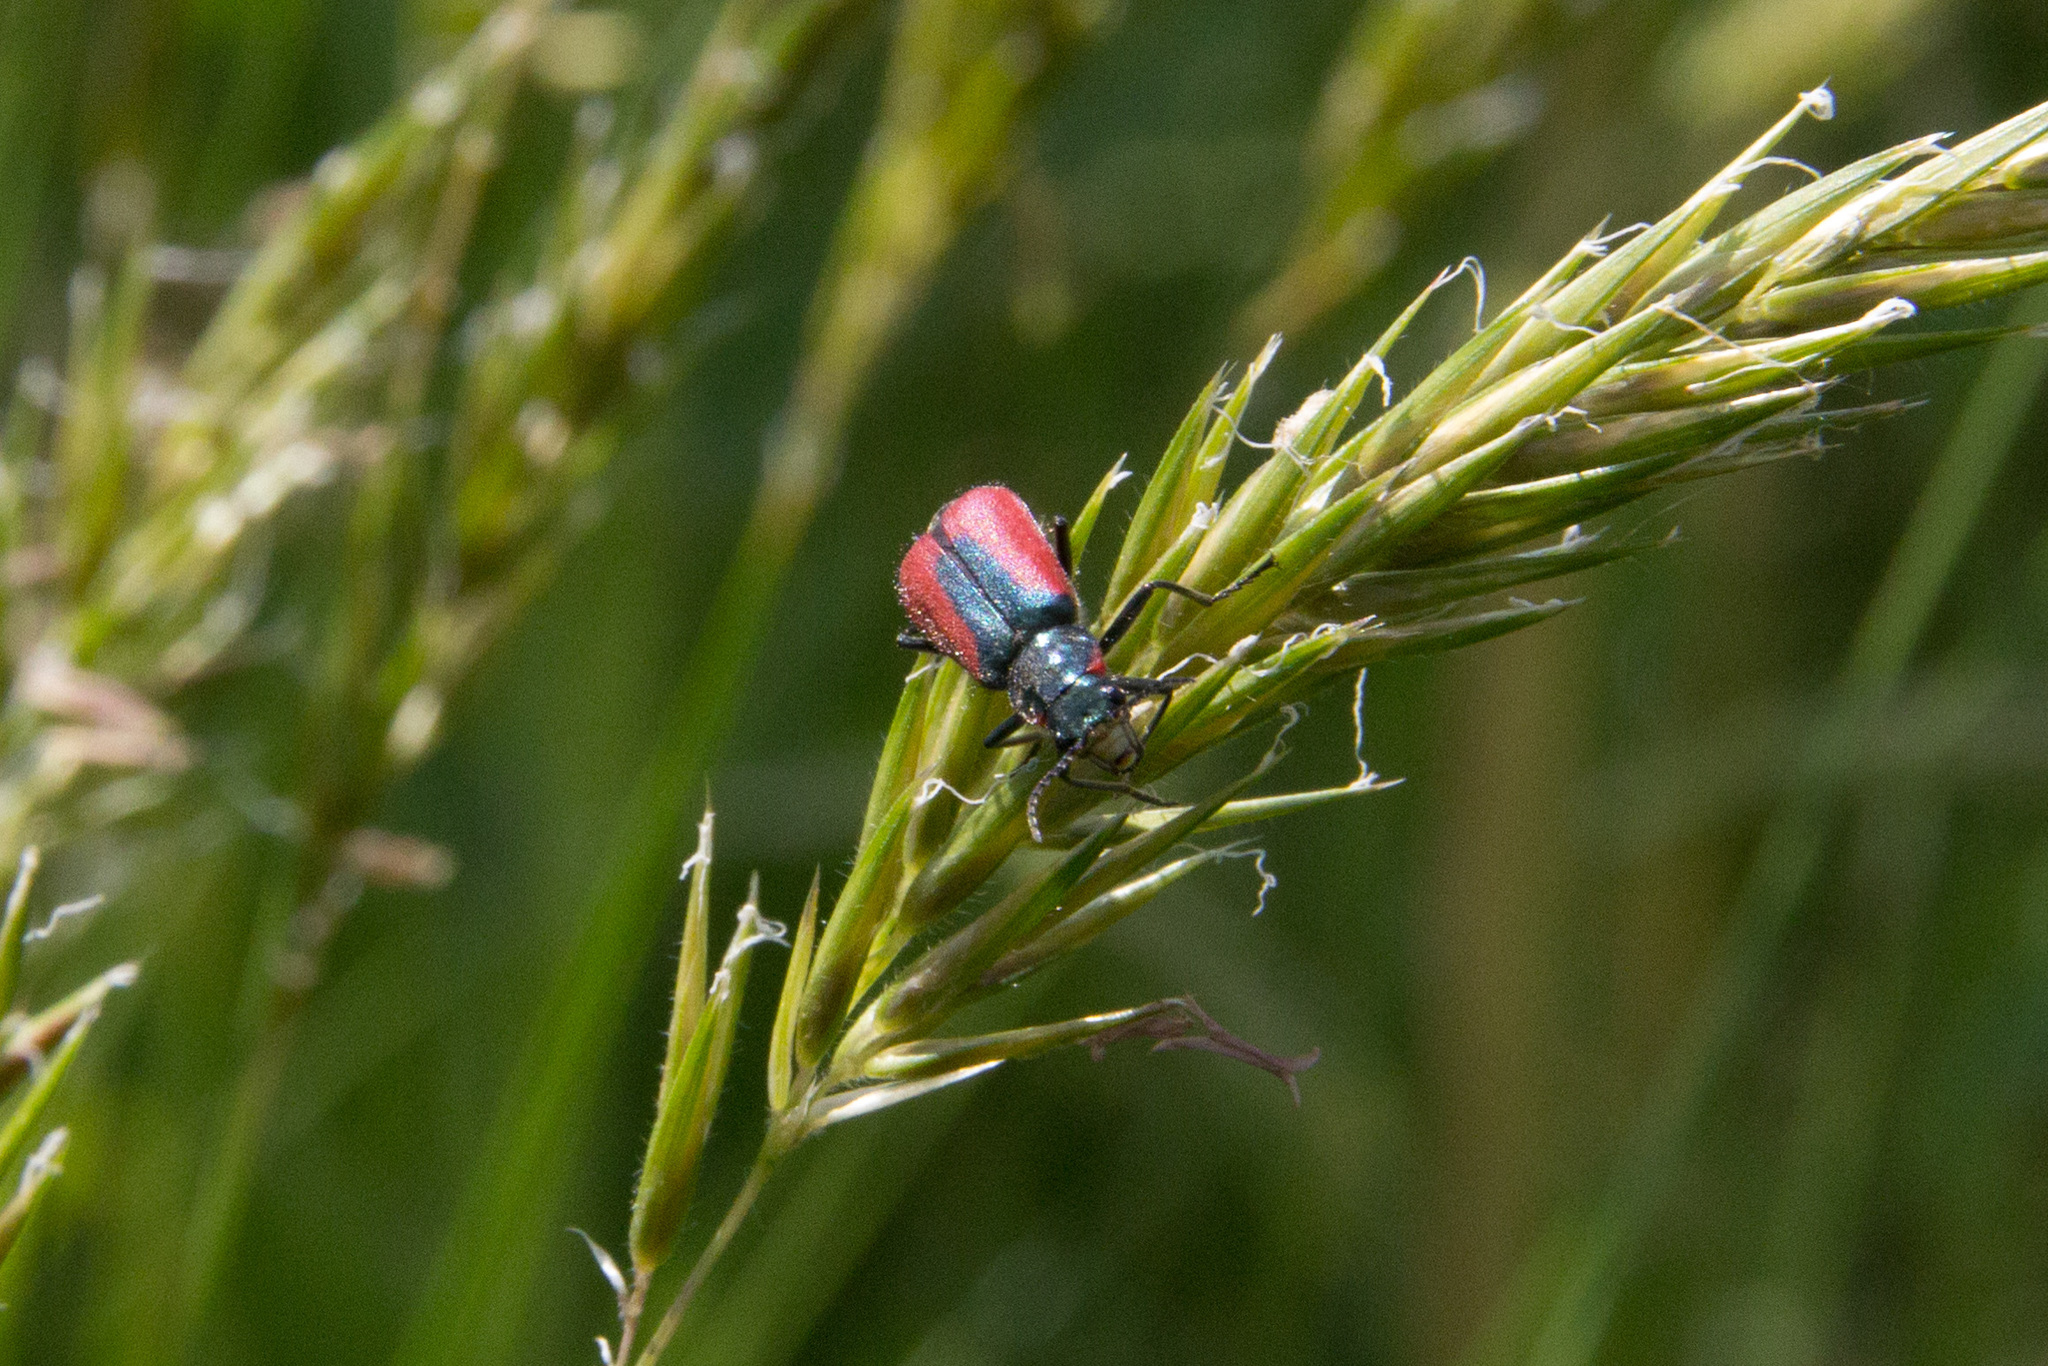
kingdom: Animalia
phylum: Arthropoda
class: Insecta
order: Coleoptera
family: Melyridae
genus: Malachius
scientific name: Malachius aeneus
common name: Scarlet malachite beetle
